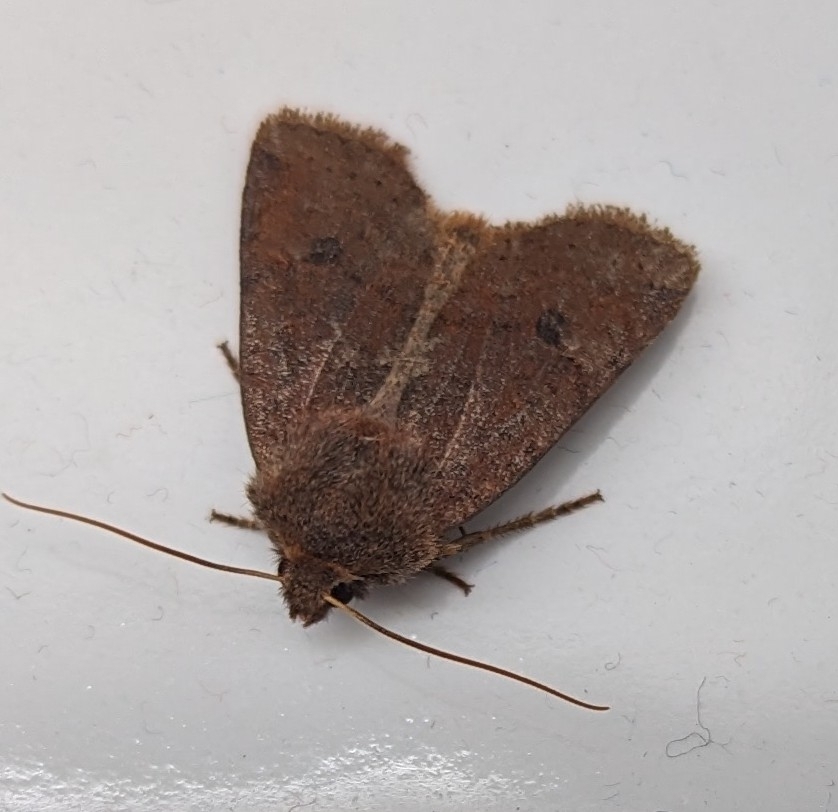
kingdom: Animalia
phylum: Arthropoda
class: Insecta
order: Lepidoptera
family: Noctuidae
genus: Conistra
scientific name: Conistra vaccinii
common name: Chestnut
